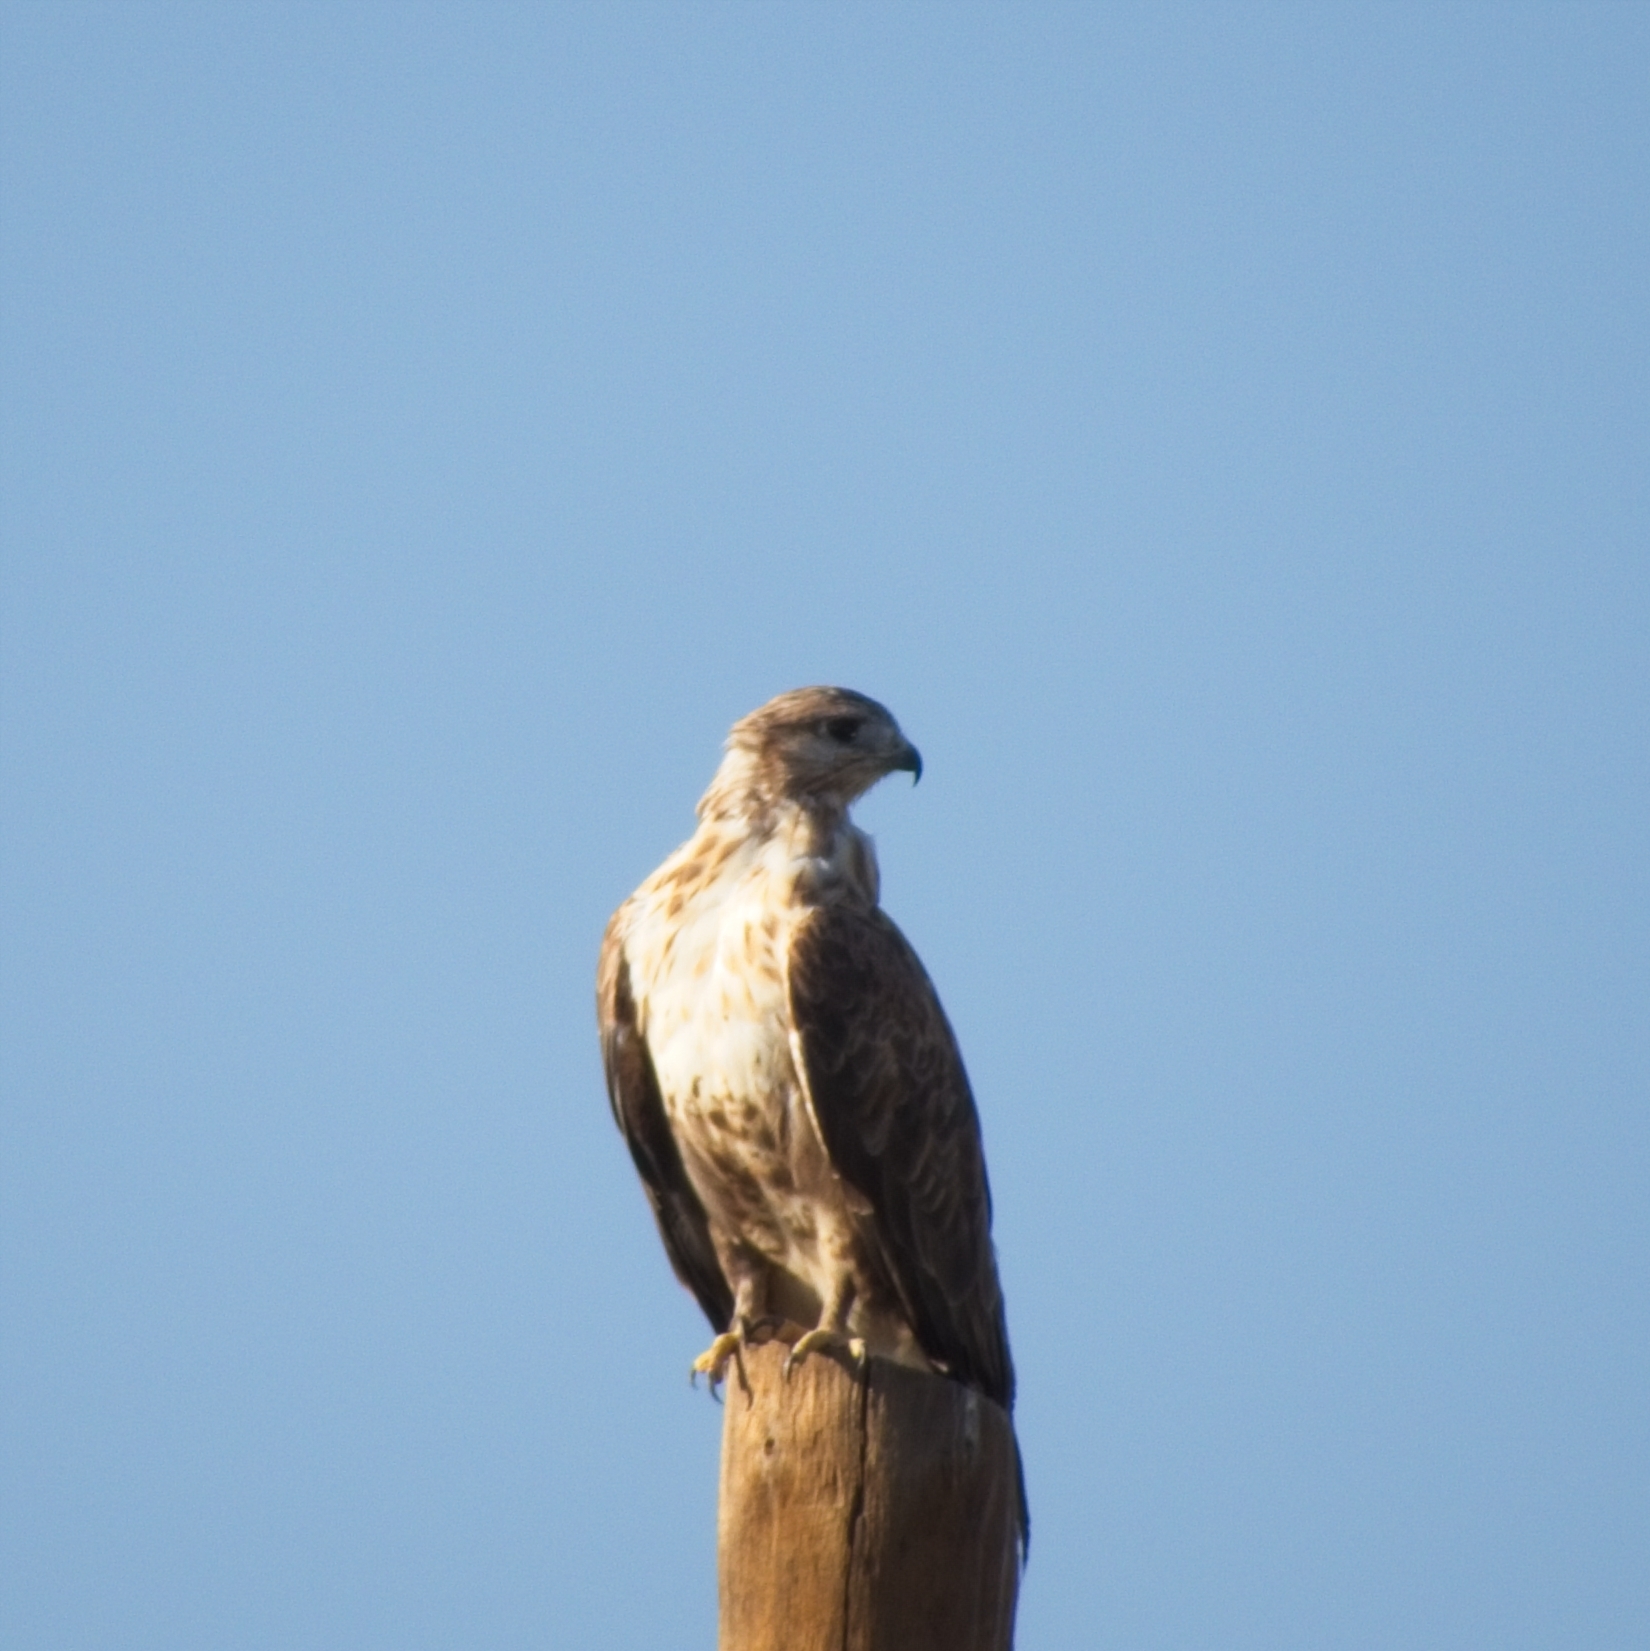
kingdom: Animalia
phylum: Chordata
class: Aves
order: Accipitriformes
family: Accipitridae
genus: Buteo
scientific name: Buteo hemilasius
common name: Upland buzzard
